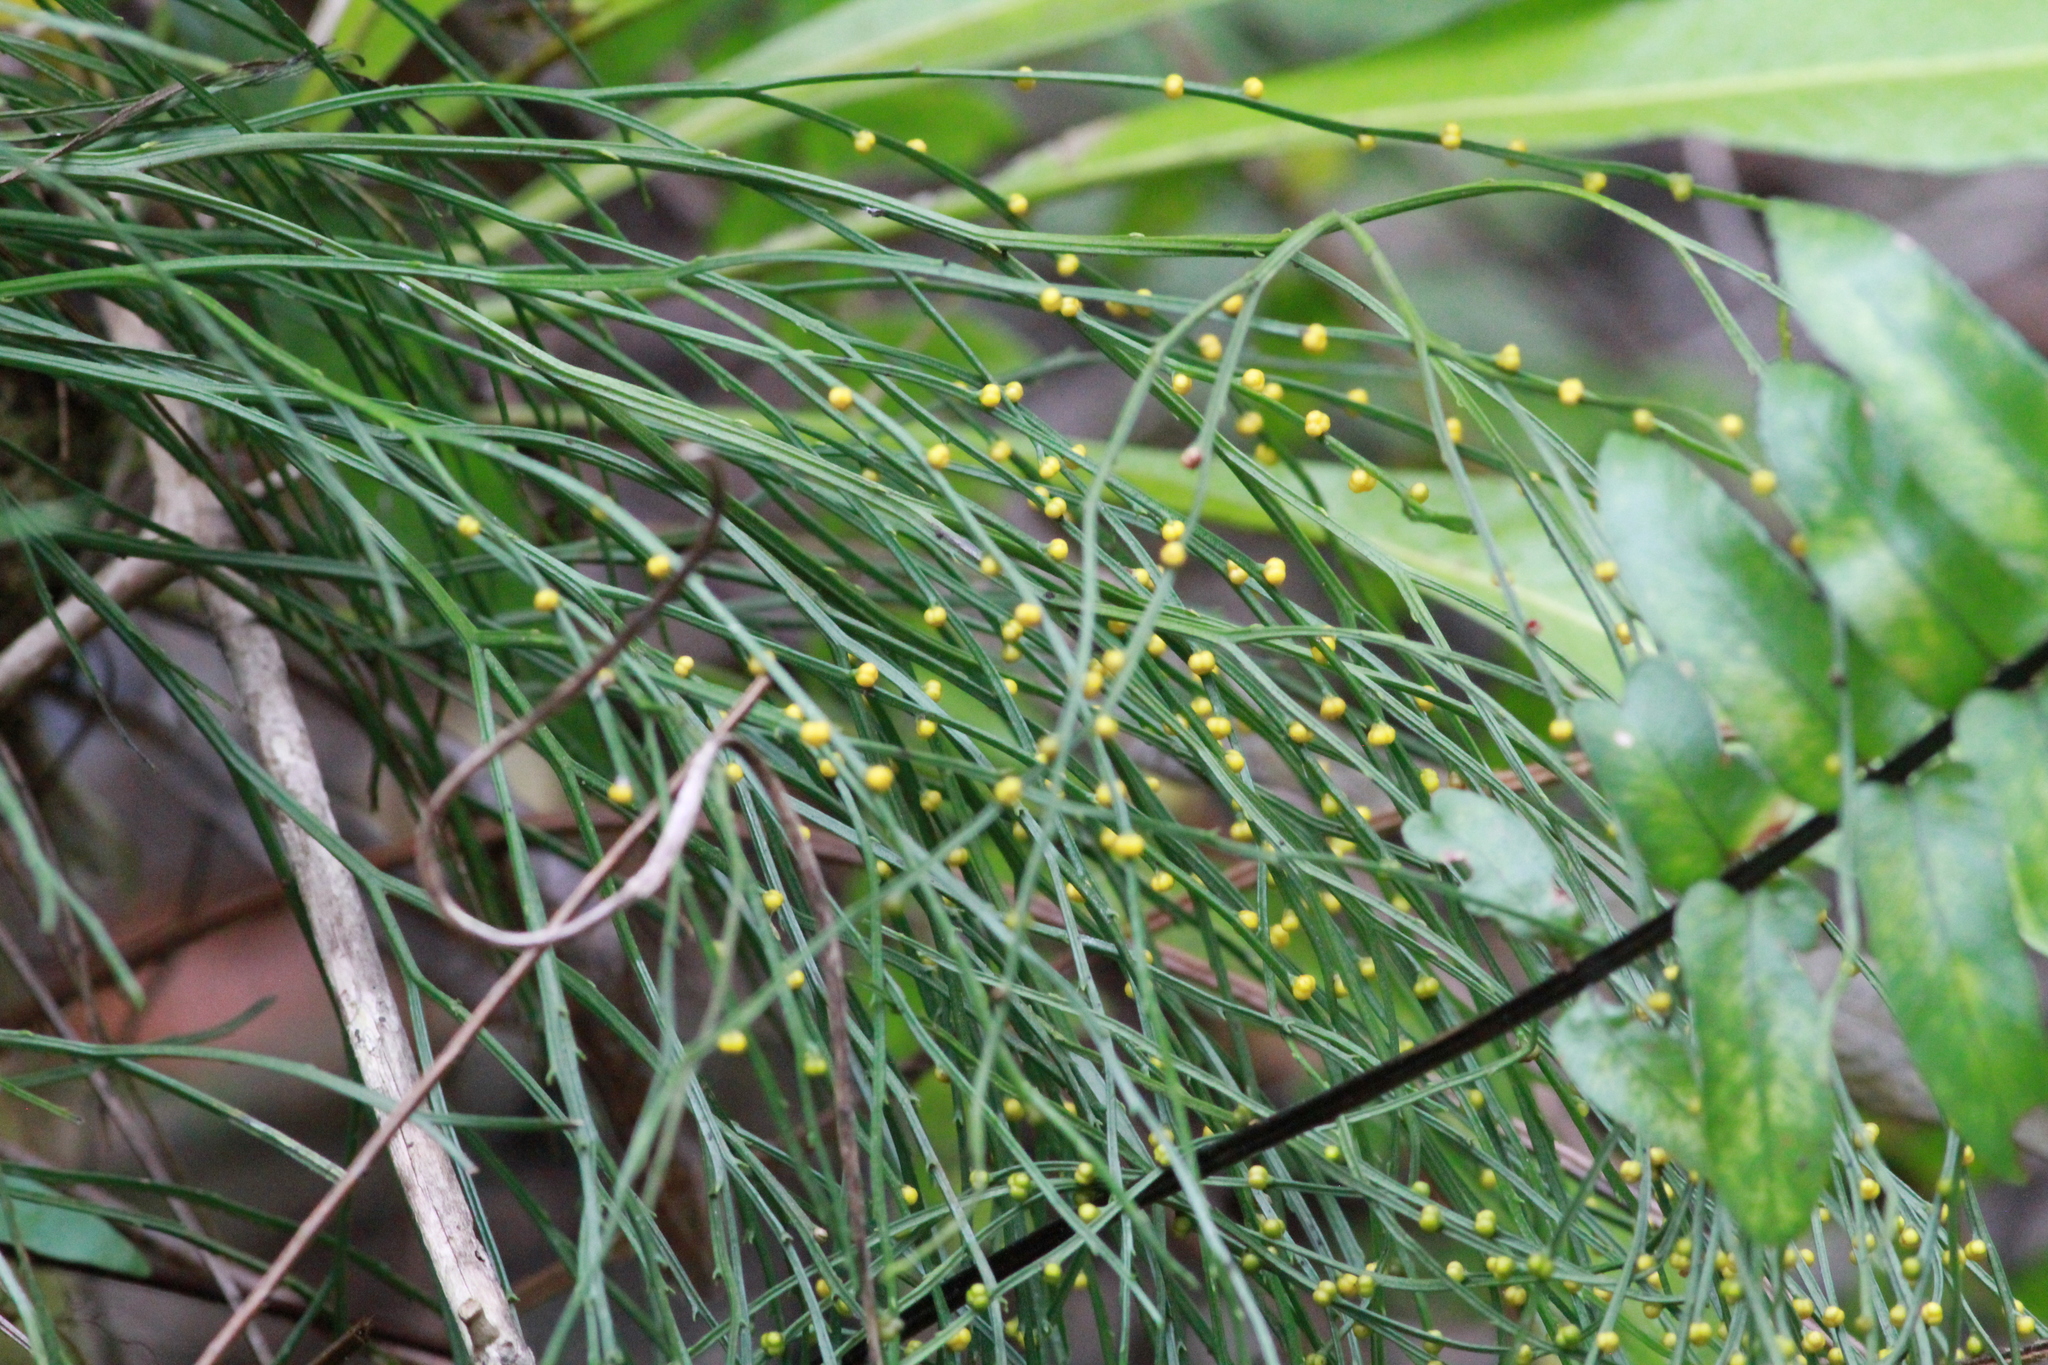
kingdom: Plantae
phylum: Tracheophyta
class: Polypodiopsida
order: Psilotales
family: Psilotaceae
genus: Psilotum
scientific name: Psilotum nudum
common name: Skeleton fork fern
